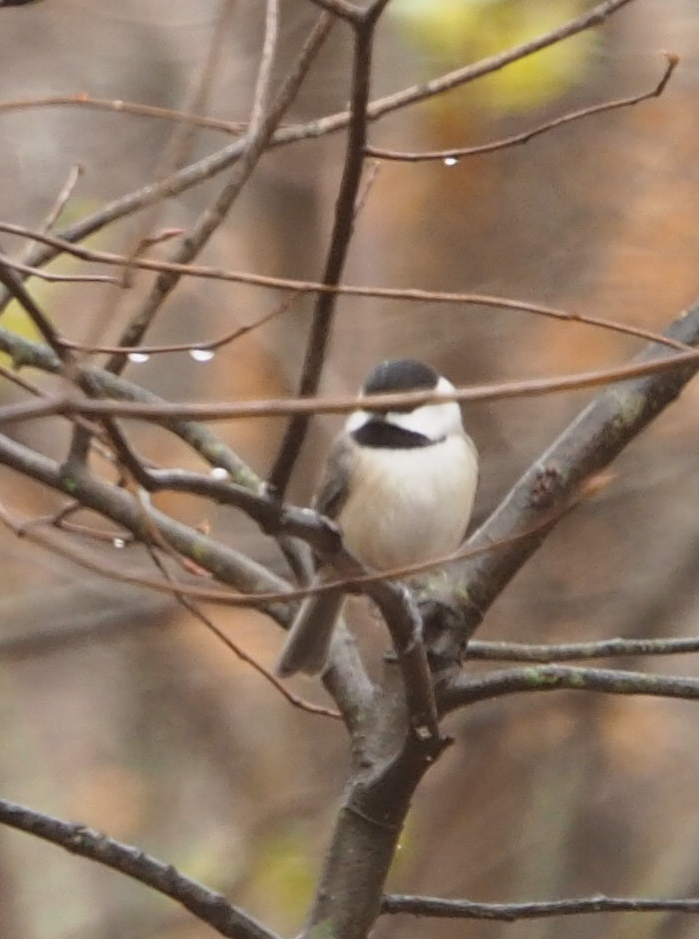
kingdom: Animalia
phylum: Chordata
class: Aves
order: Passeriformes
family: Paridae
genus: Poecile
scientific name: Poecile carolinensis
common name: Carolina chickadee
